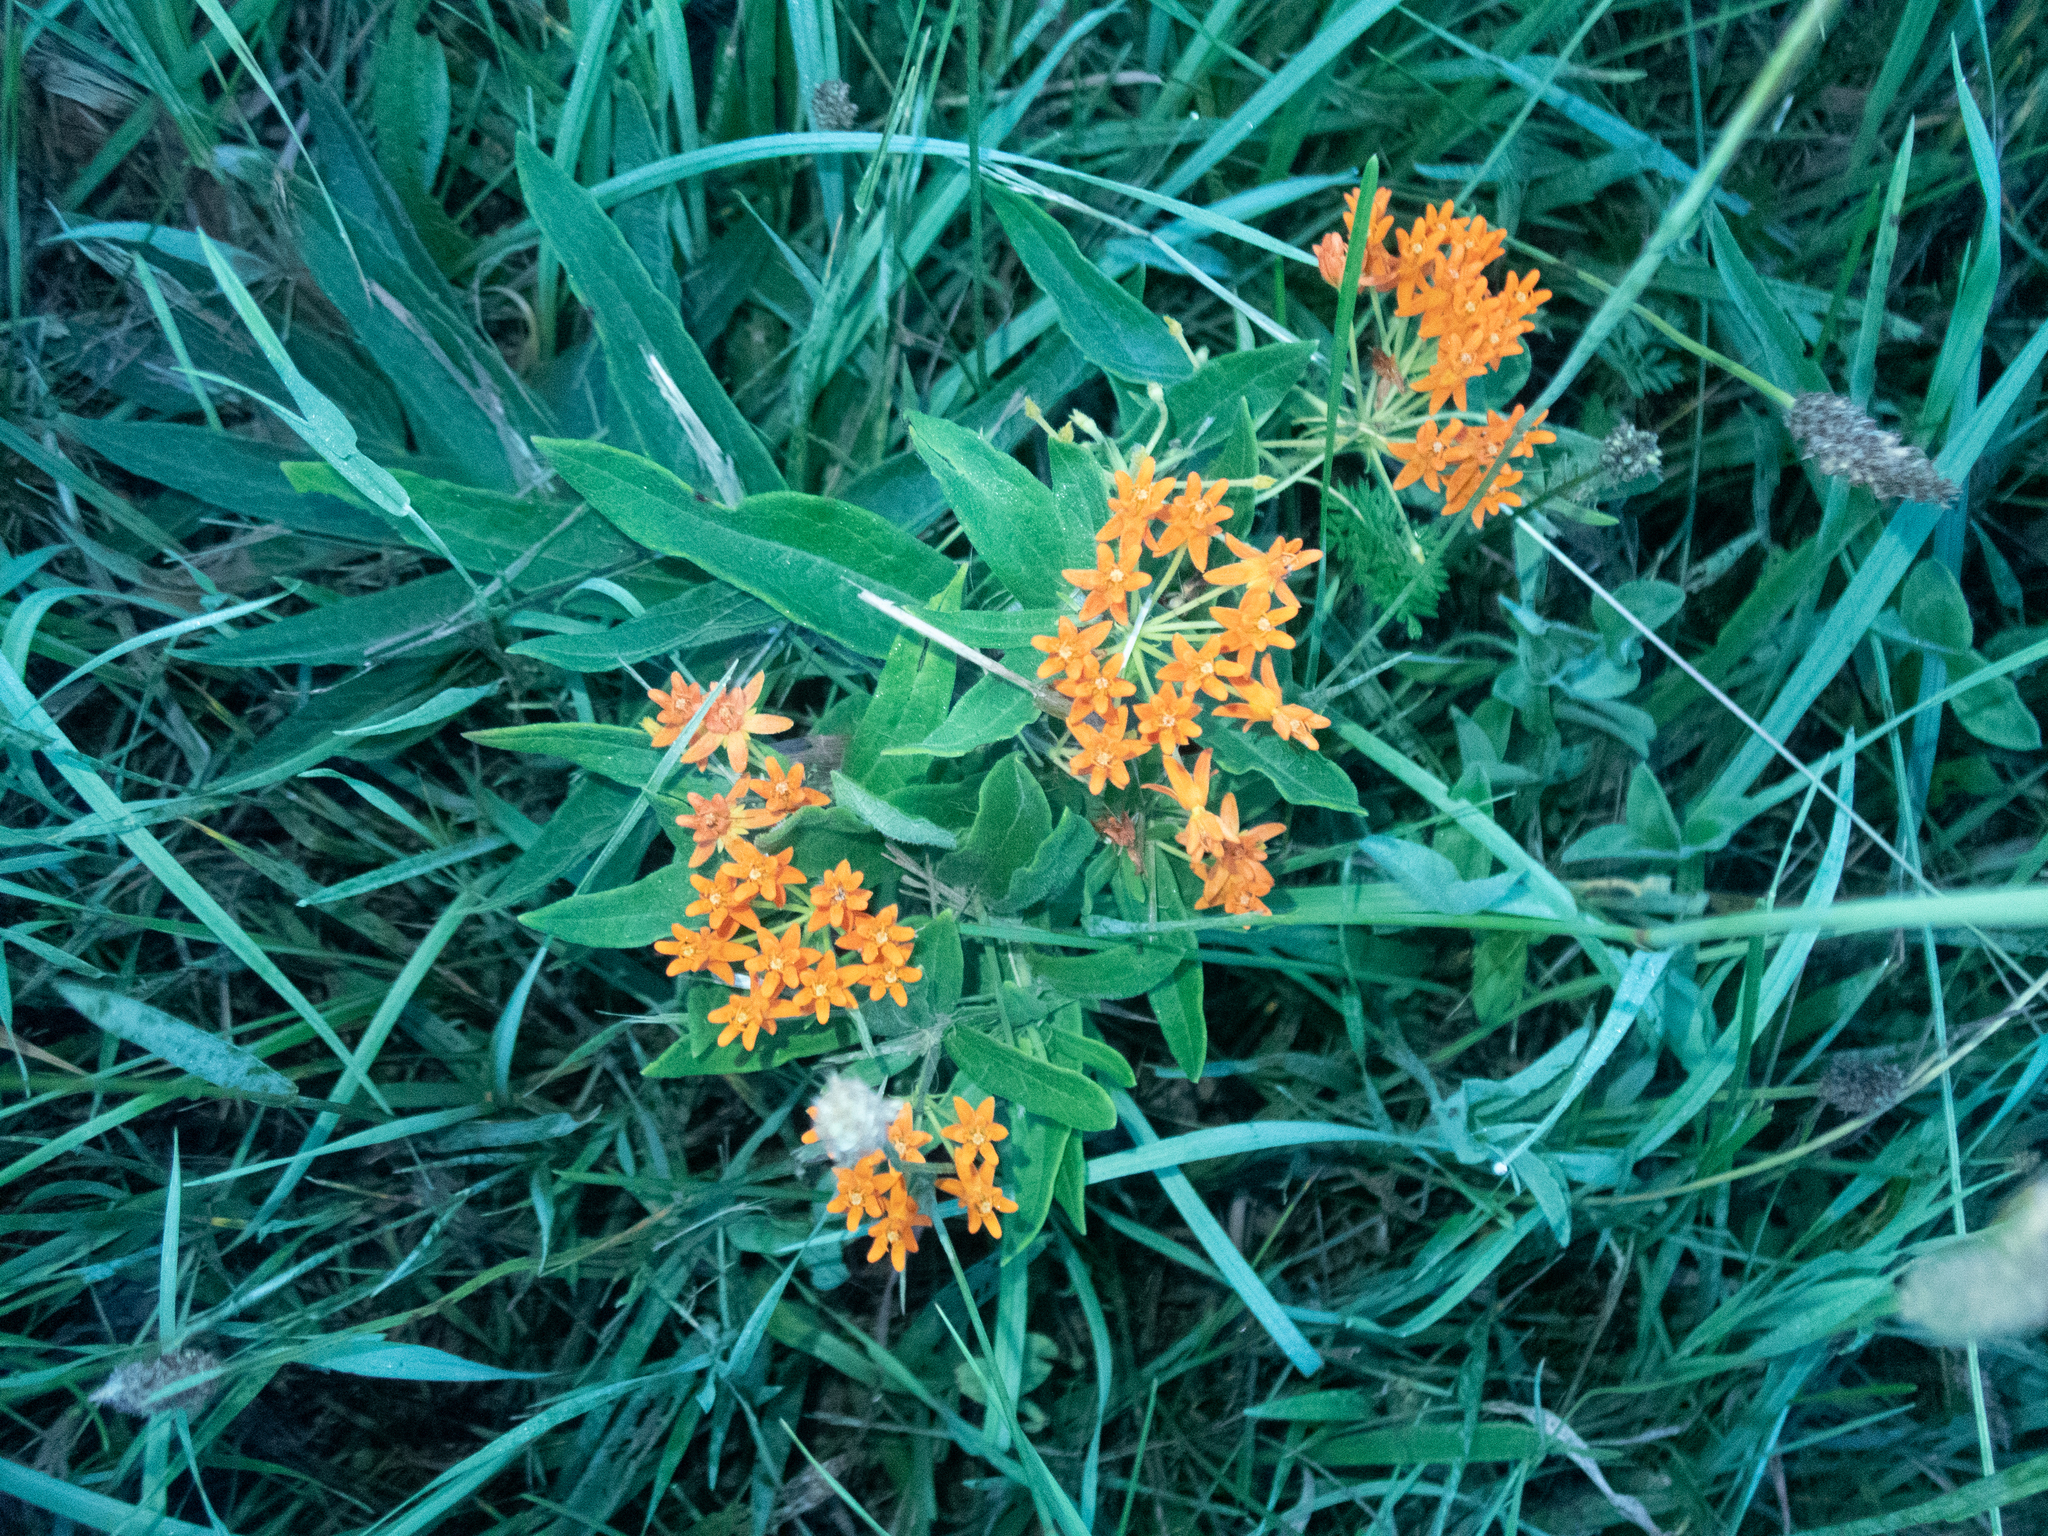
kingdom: Plantae
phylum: Tracheophyta
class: Magnoliopsida
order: Gentianales
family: Apocynaceae
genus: Asclepias
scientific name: Asclepias tuberosa
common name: Butterfly milkweed
